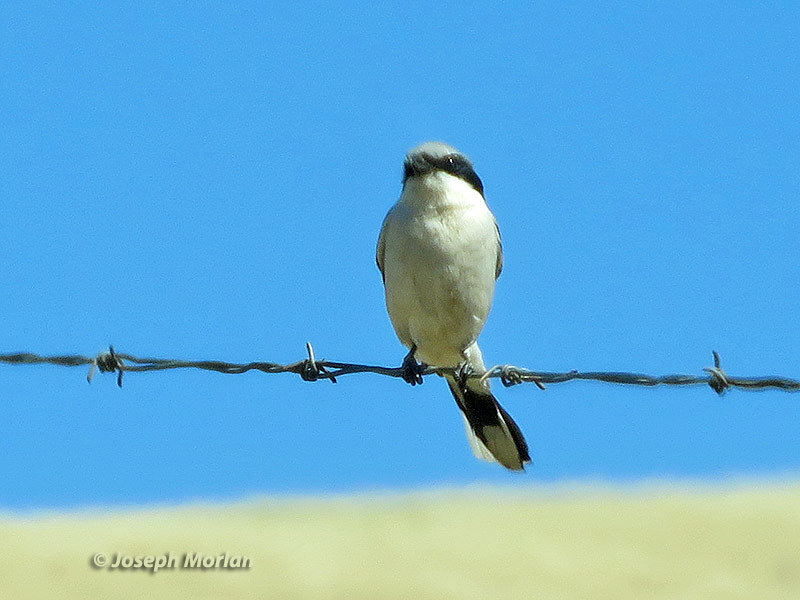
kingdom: Animalia
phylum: Chordata
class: Aves
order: Passeriformes
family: Laniidae
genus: Lanius
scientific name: Lanius ludovicianus
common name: Loggerhead shrike
